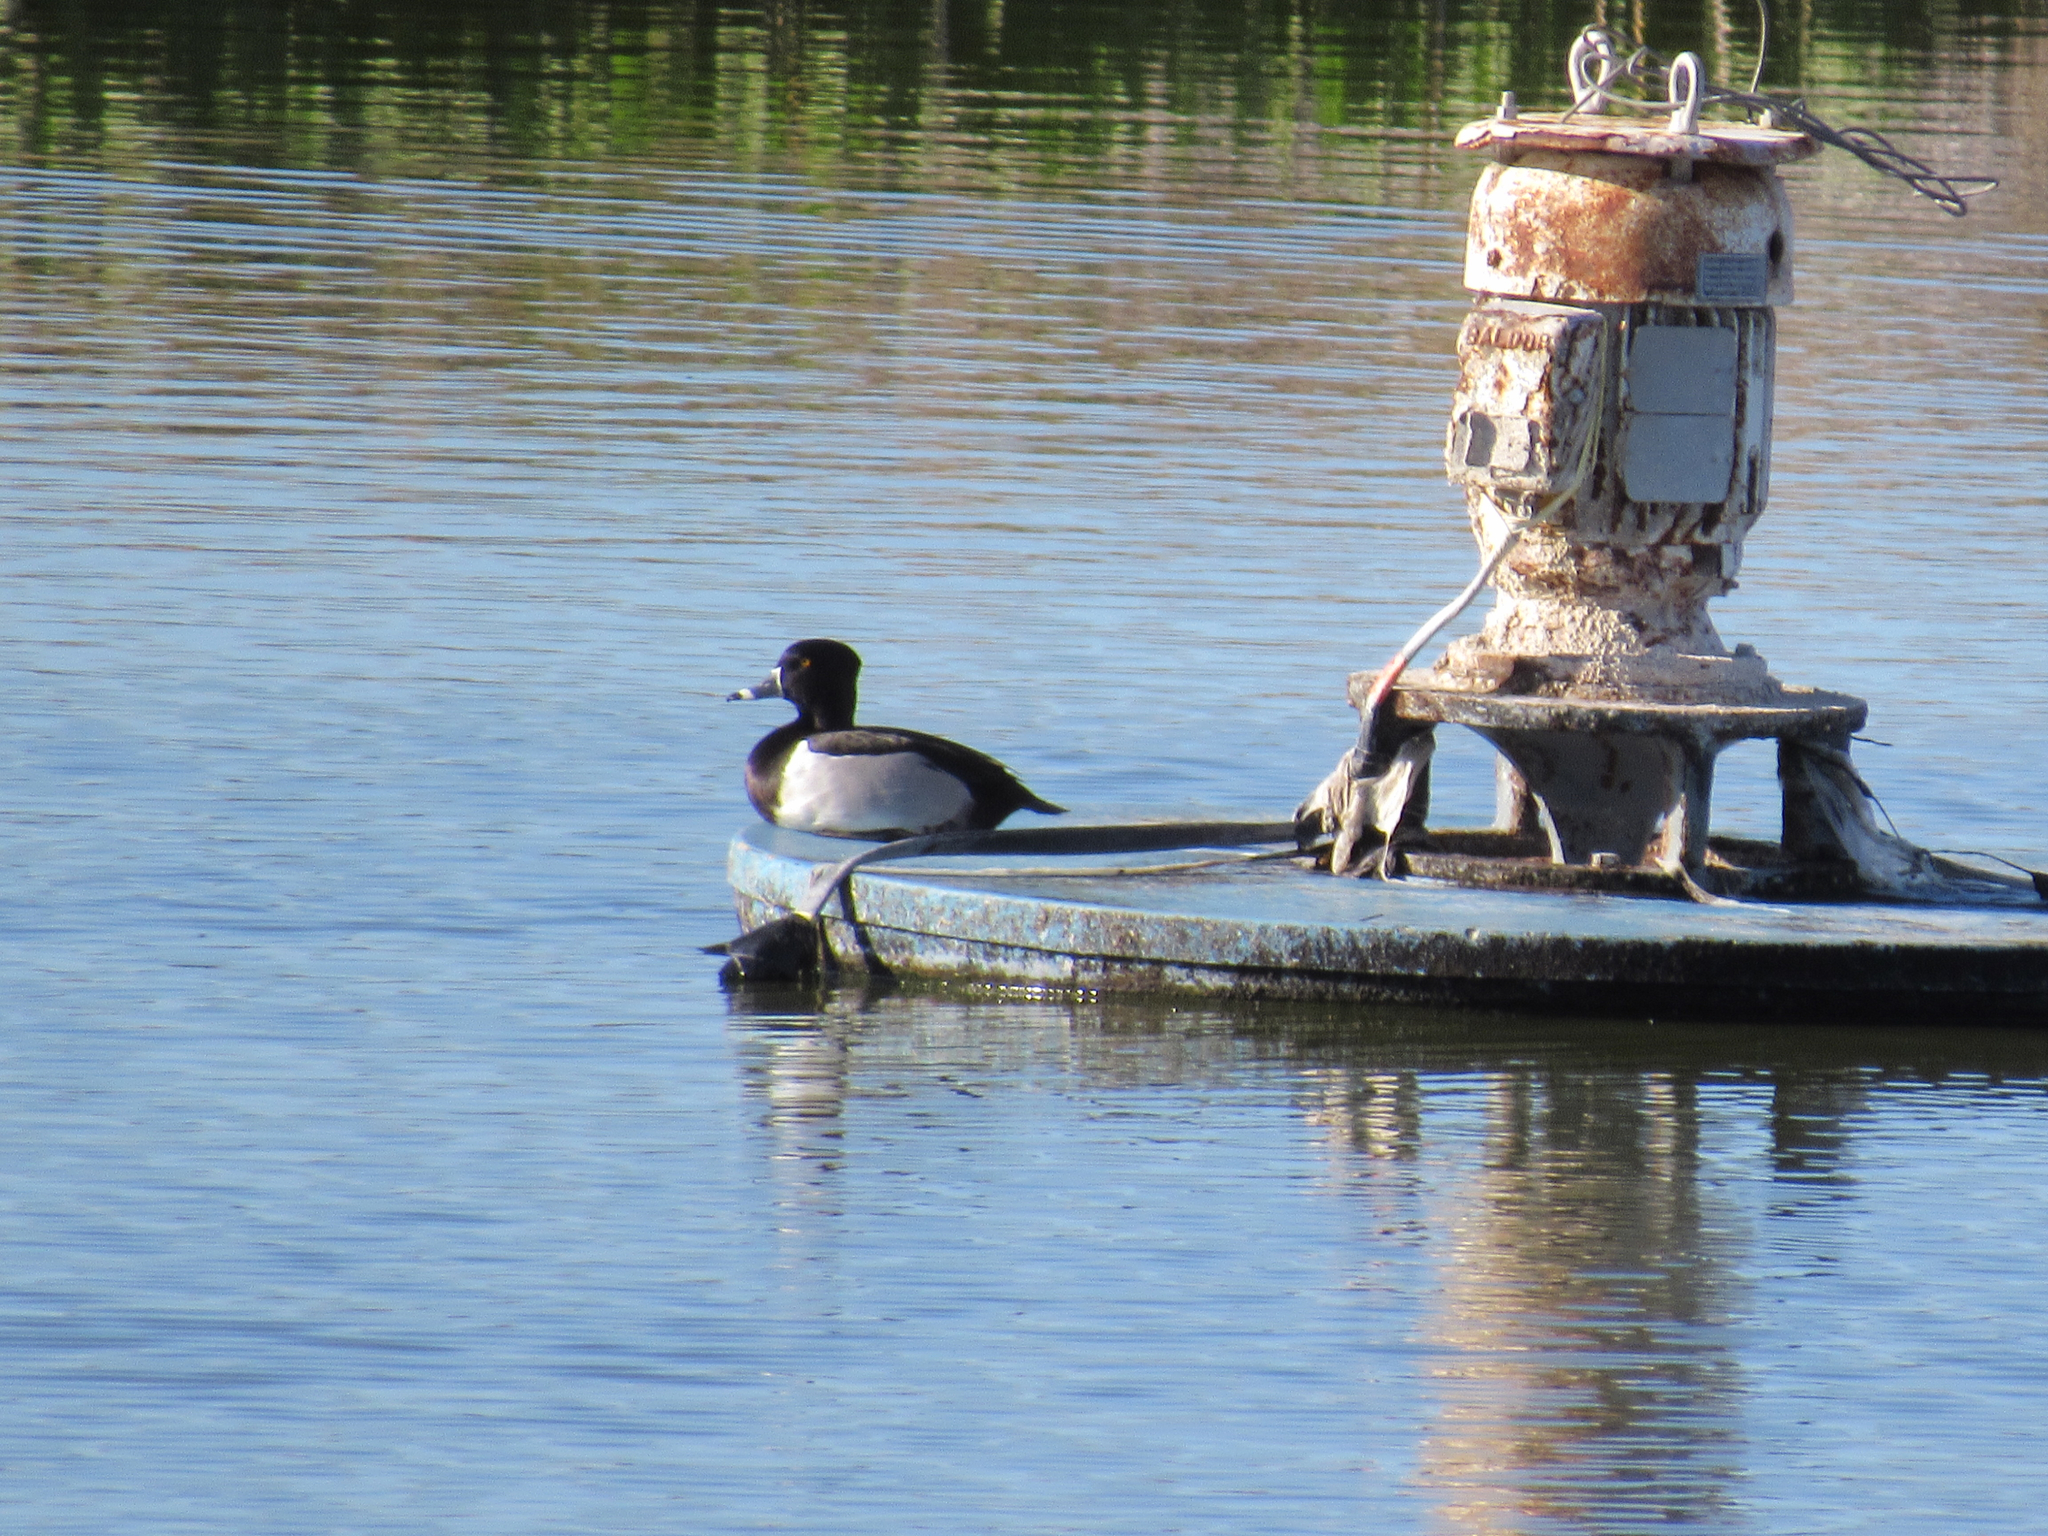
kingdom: Animalia
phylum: Chordata
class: Aves
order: Anseriformes
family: Anatidae
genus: Aythya
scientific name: Aythya collaris
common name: Ring-necked duck
